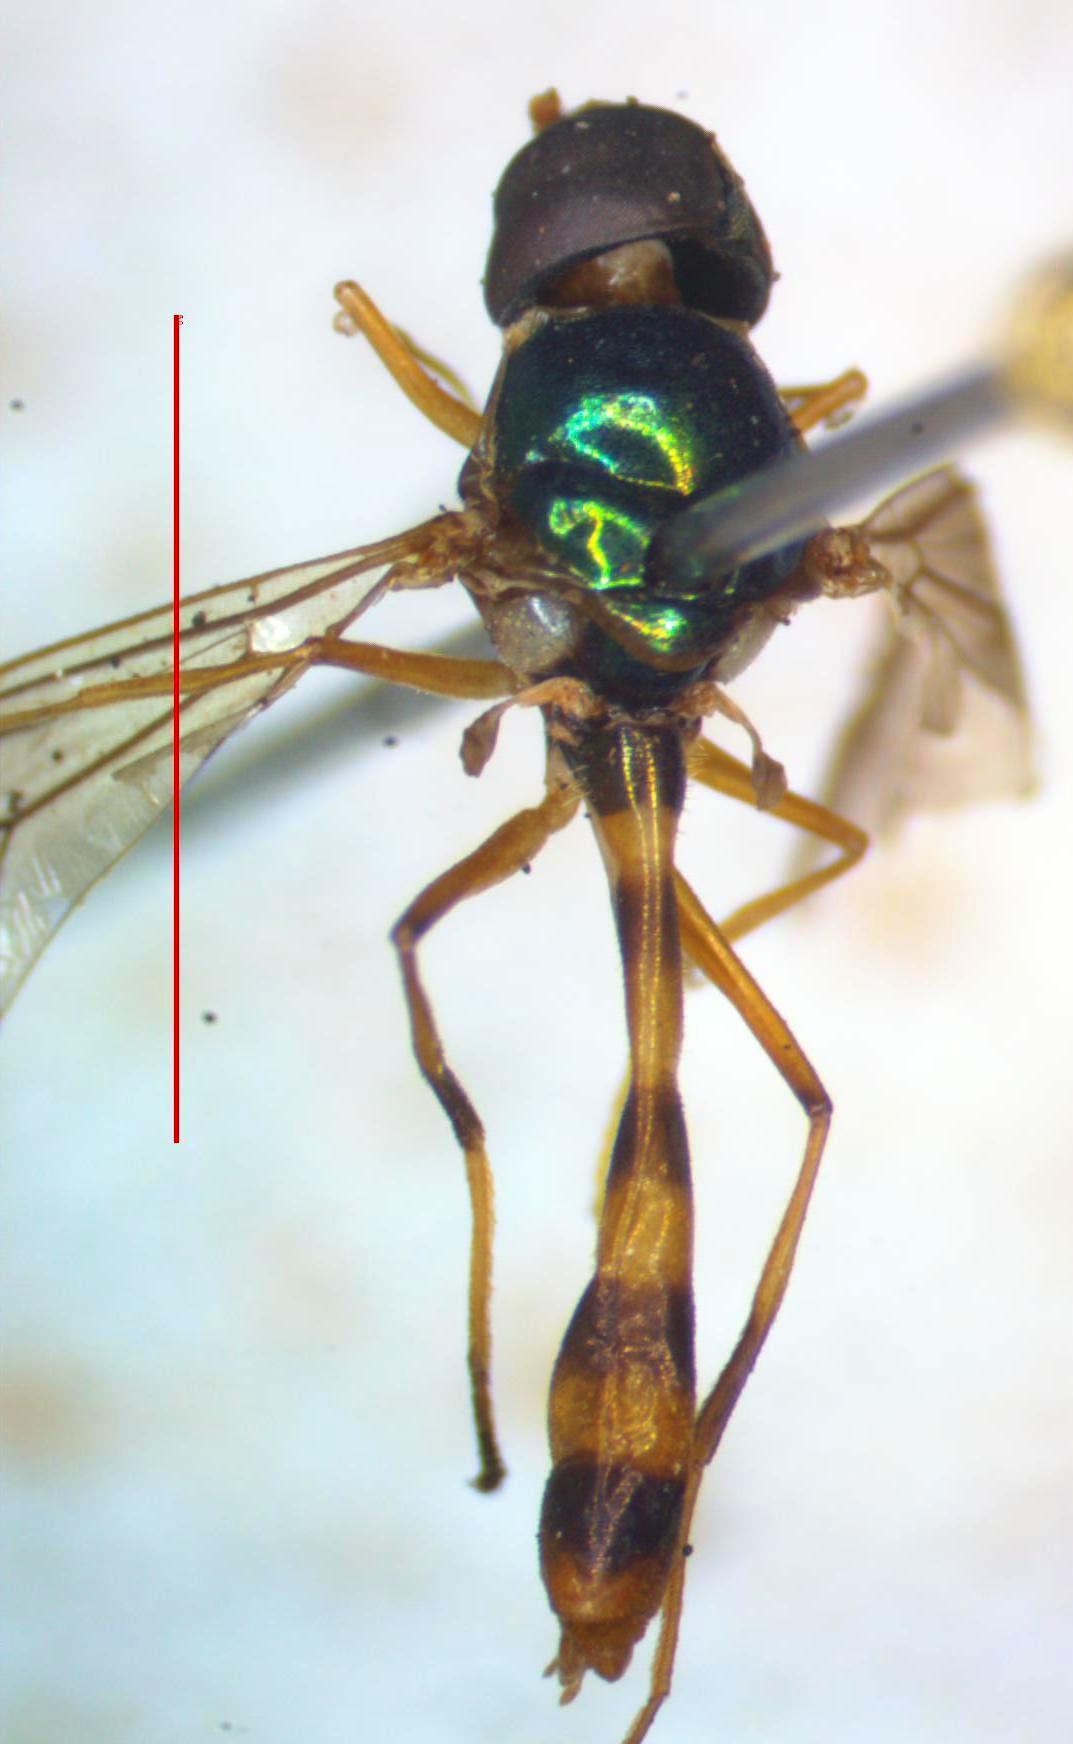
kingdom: Animalia
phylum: Arthropoda
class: Insecta
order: Diptera
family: Stratiomyidae
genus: Sargus
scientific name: Sargus fasciatus
